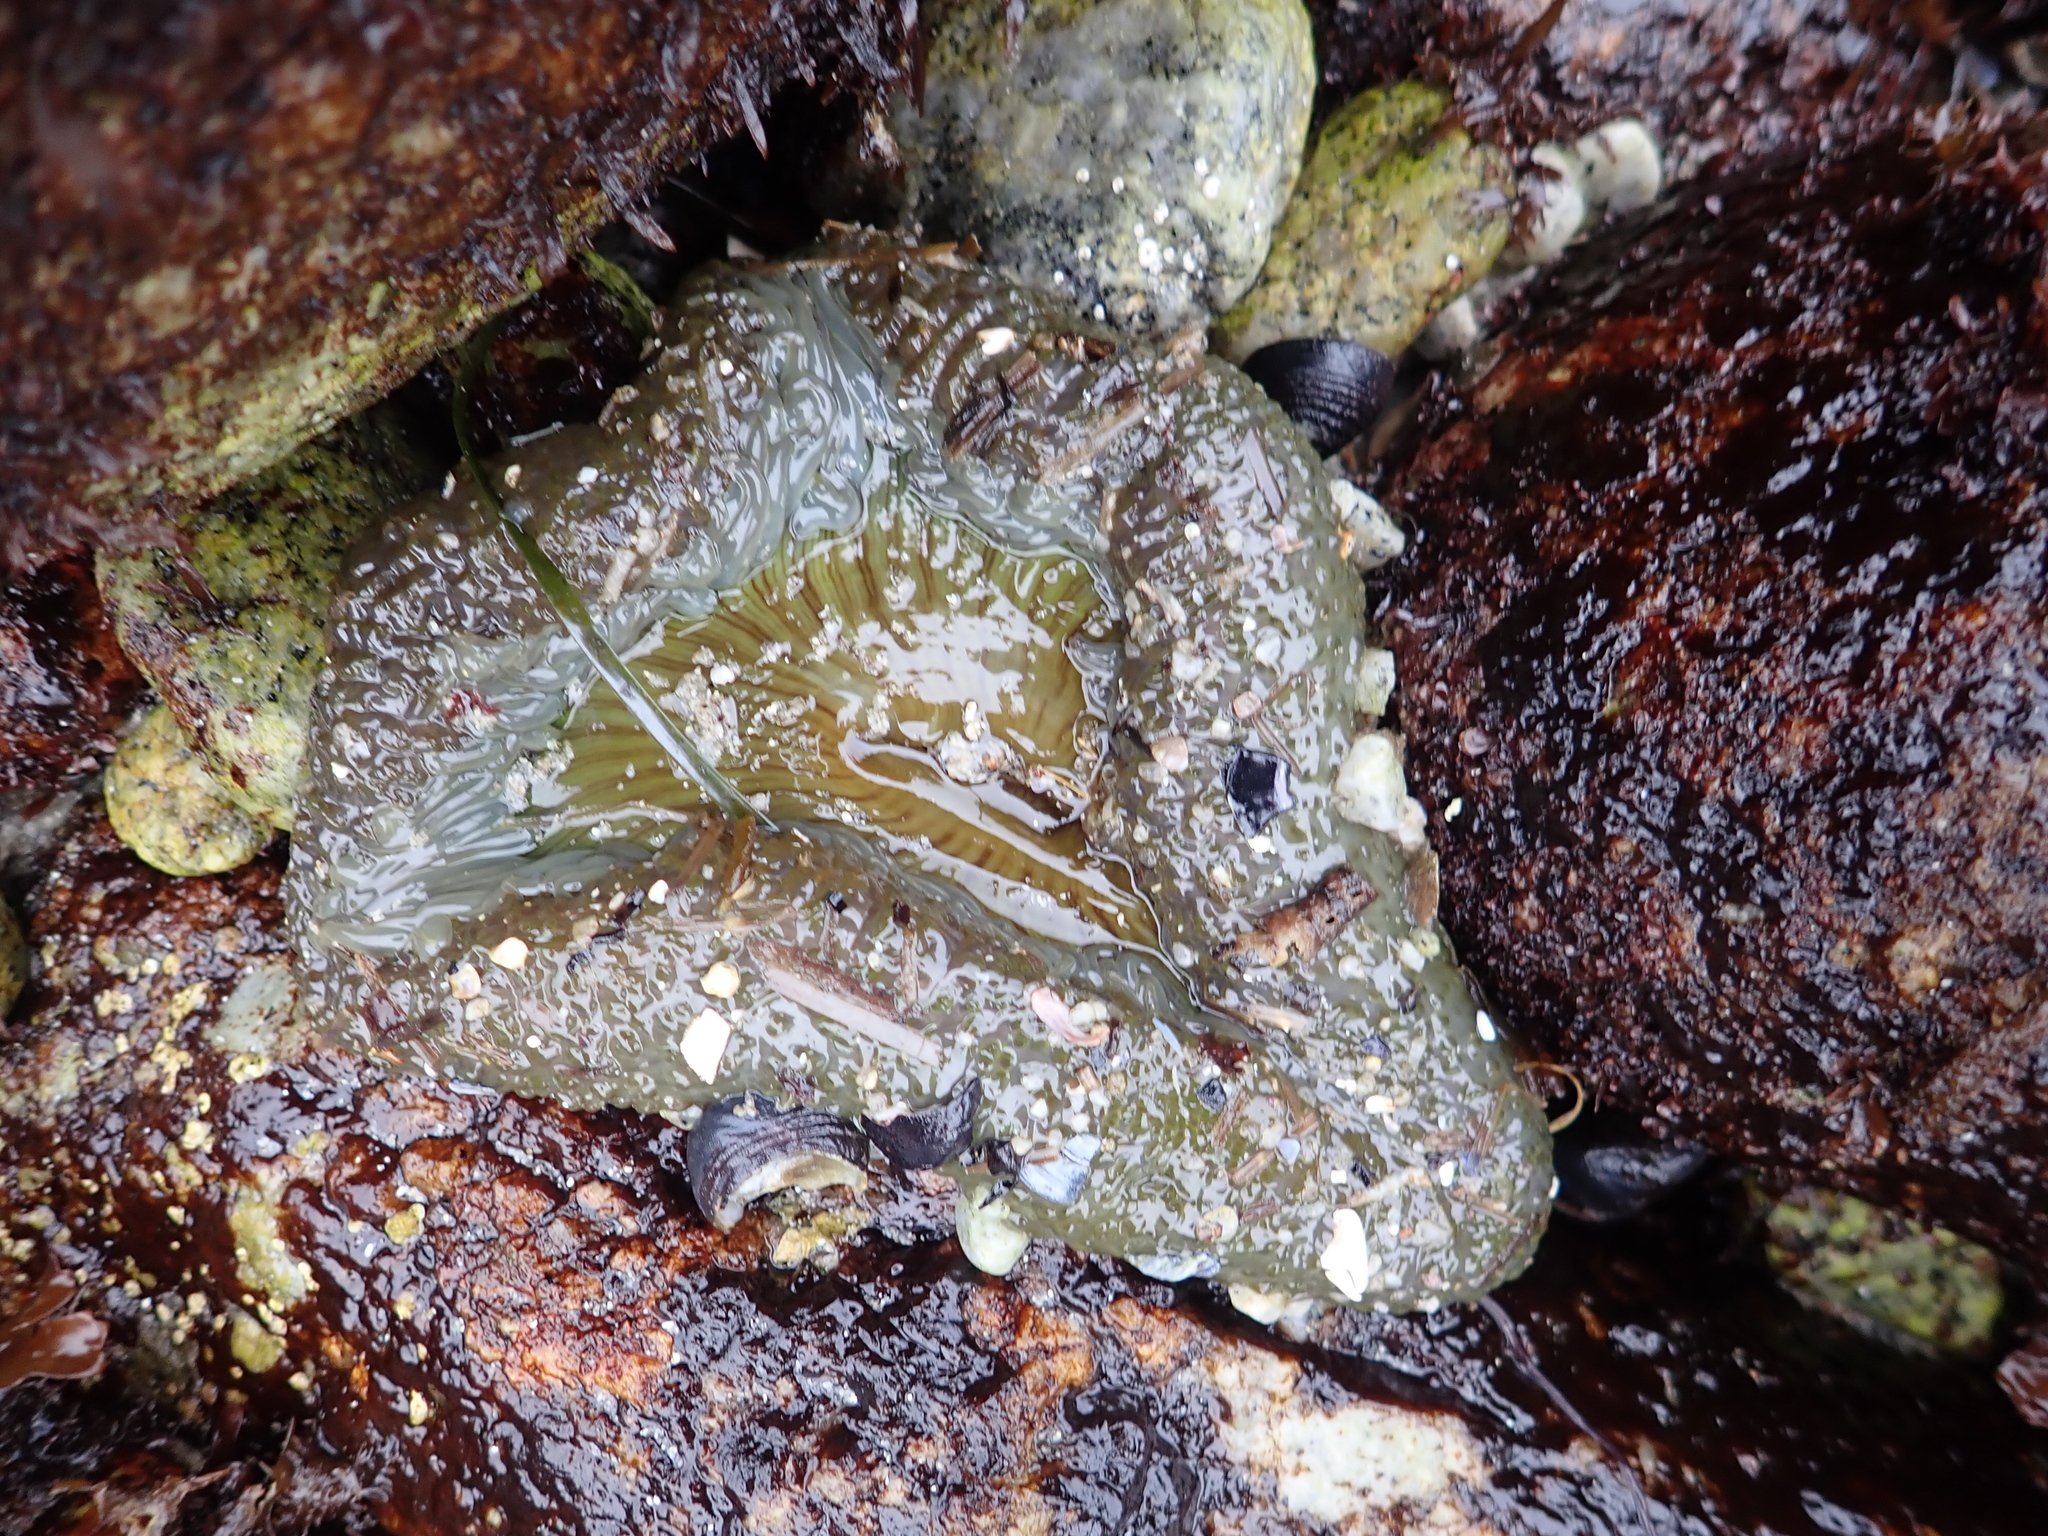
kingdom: Animalia
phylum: Cnidaria
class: Anthozoa
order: Actiniaria
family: Actiniidae
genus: Anthopleura
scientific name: Anthopleura sola
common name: Sun anemone
